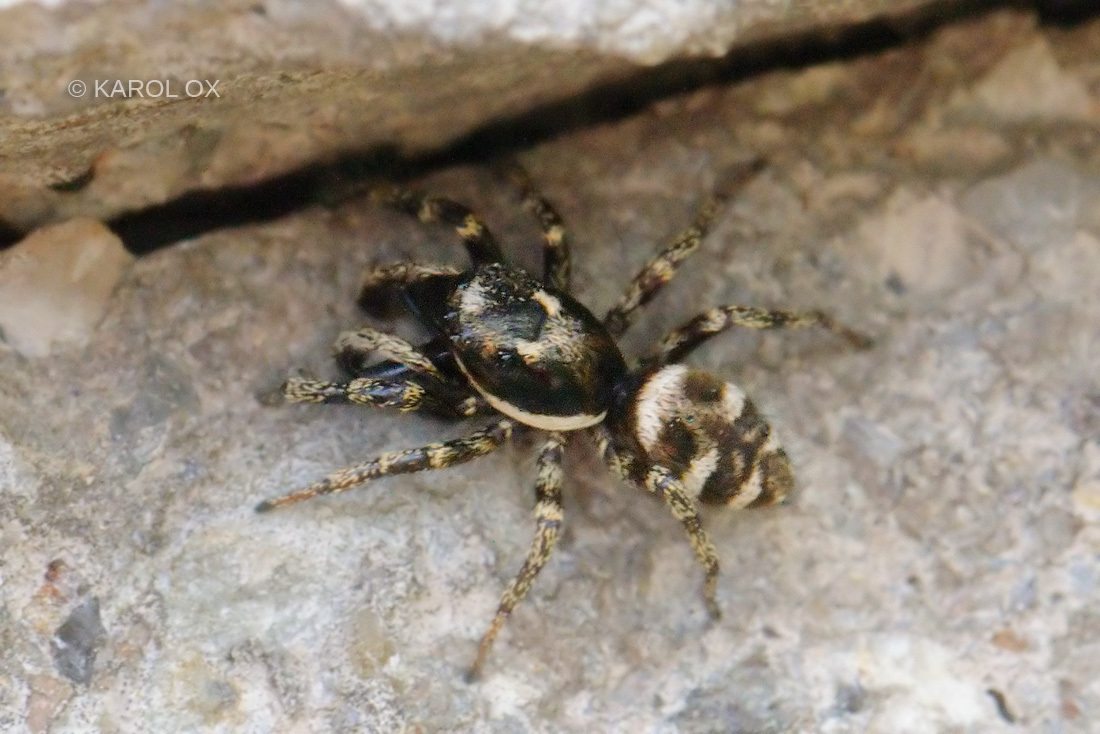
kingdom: Animalia
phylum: Arthropoda
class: Arachnida
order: Araneae
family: Salticidae
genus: Salticus
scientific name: Salticus scenicus
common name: Zebra jumper
